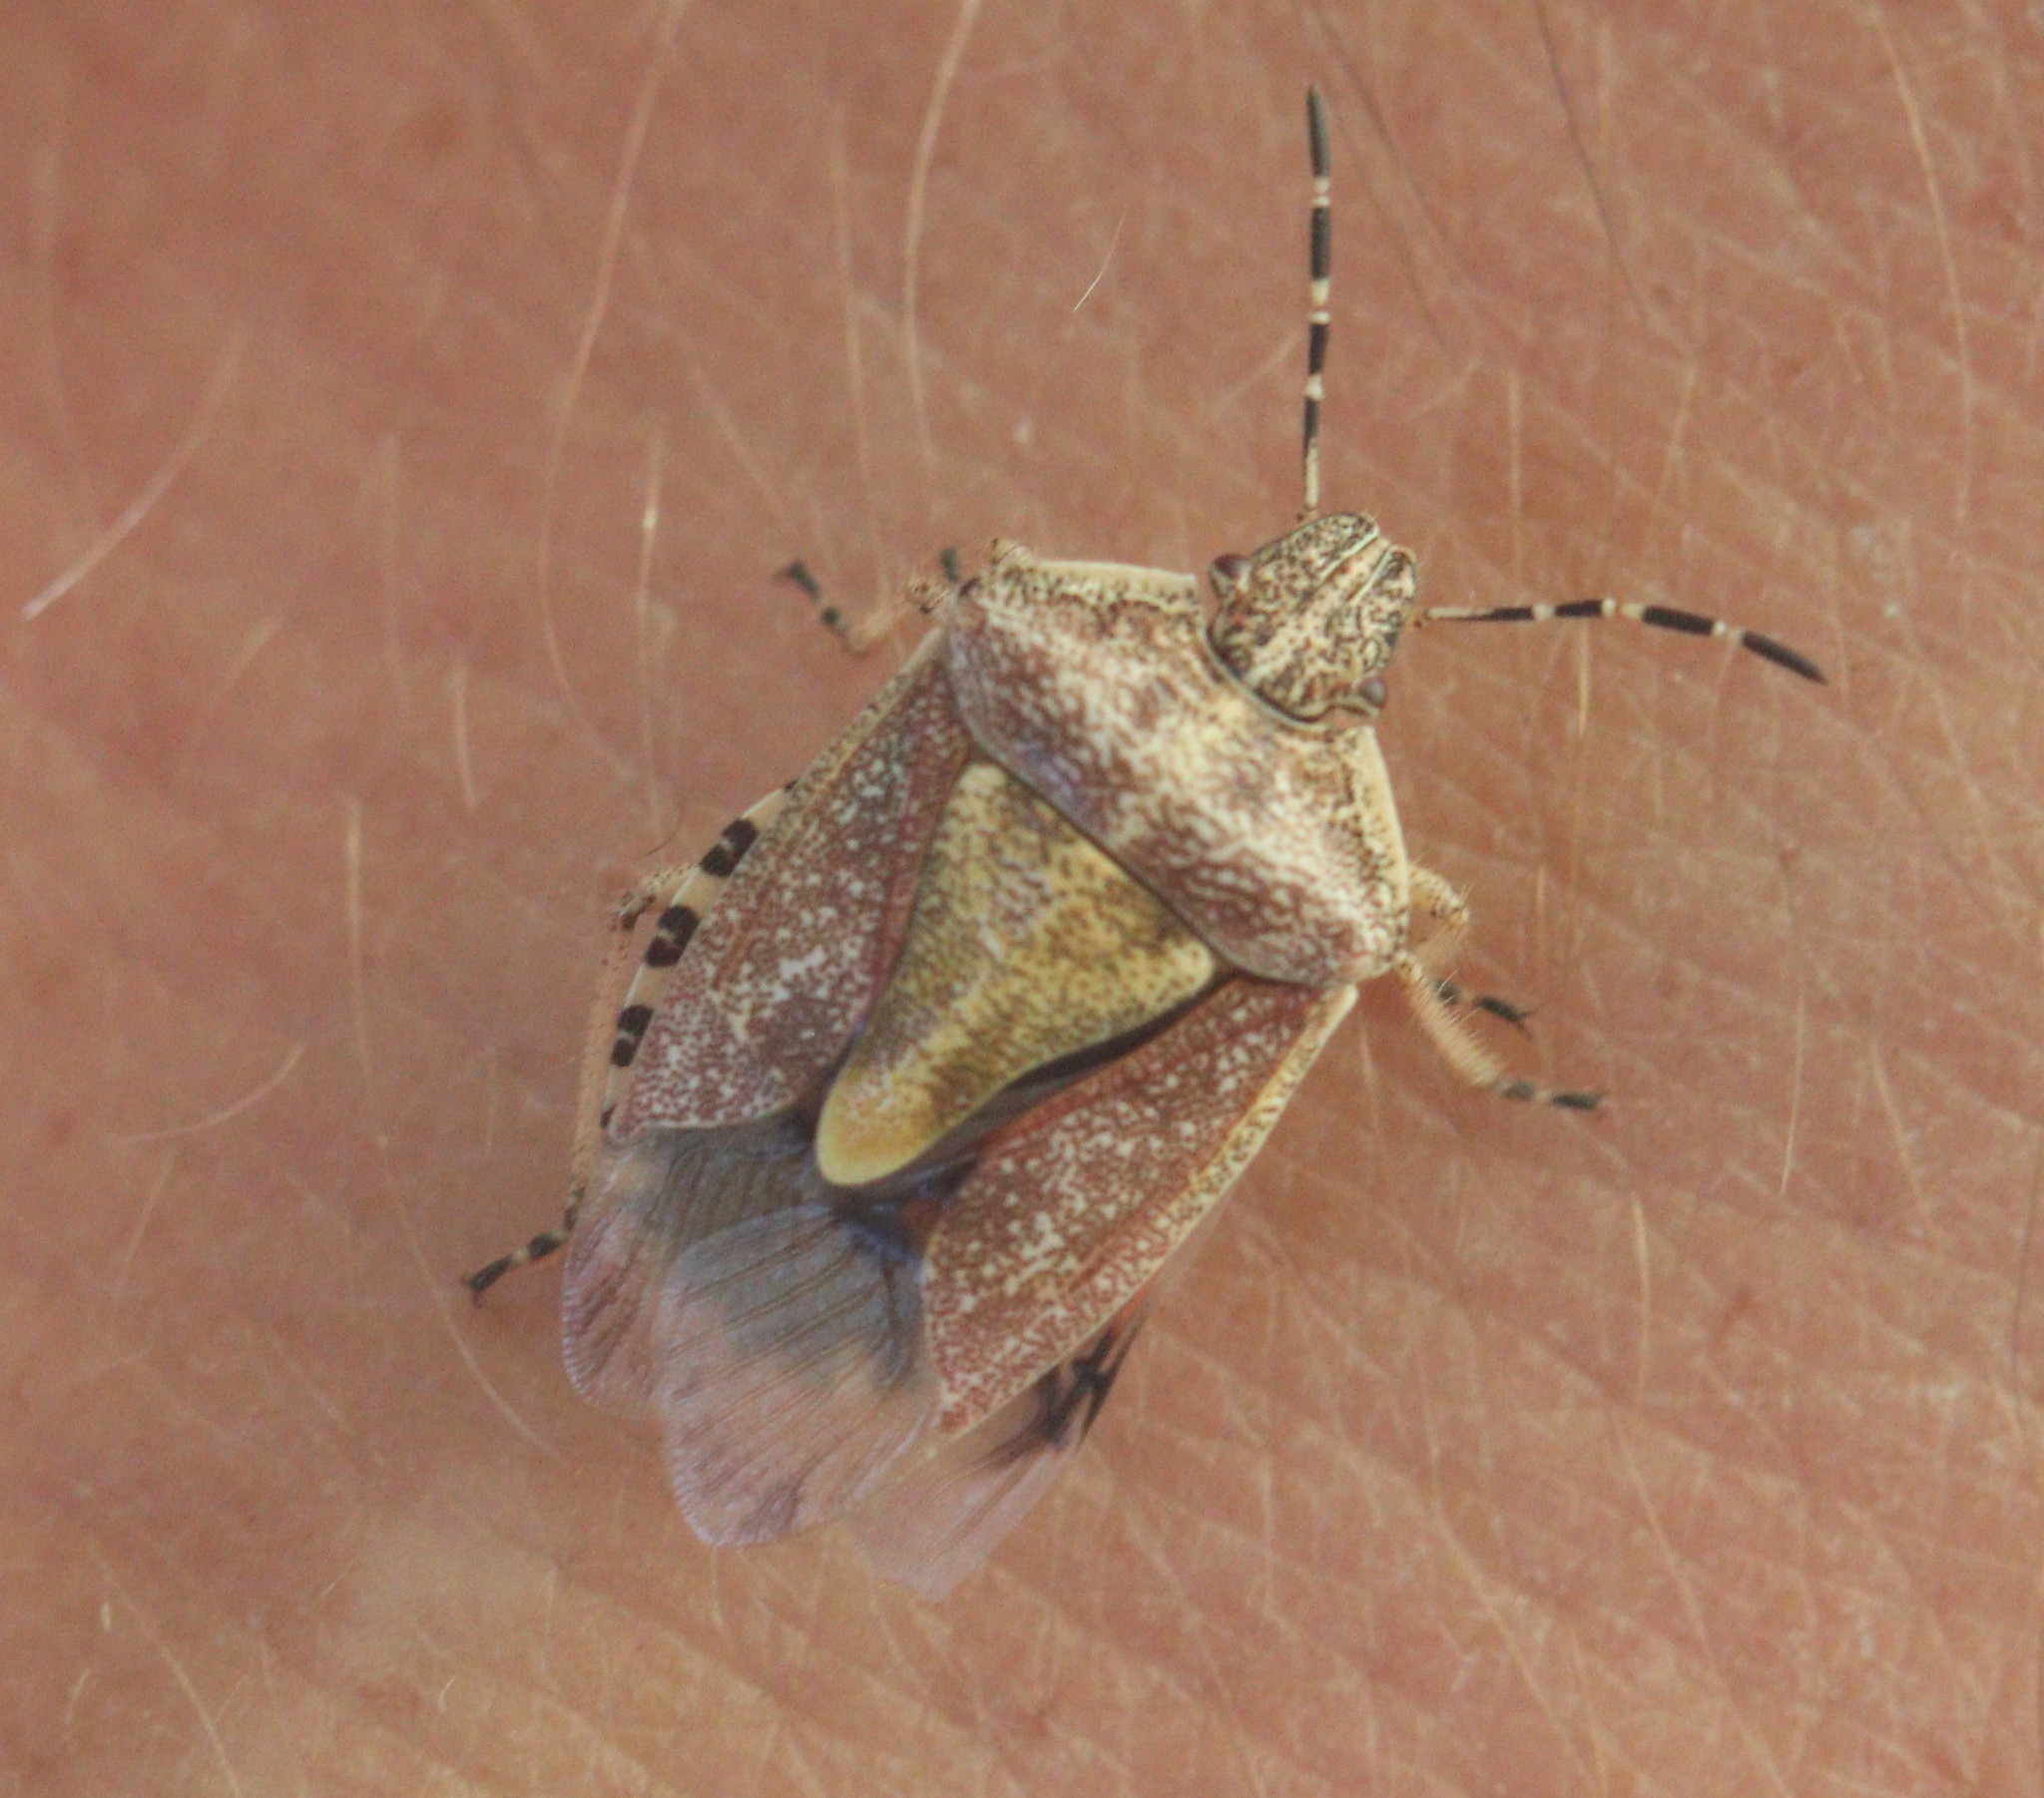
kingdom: Animalia
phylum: Arthropoda
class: Insecta
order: Hemiptera
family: Pentatomidae
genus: Dolycoris
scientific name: Dolycoris baccarum
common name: Sloe bug
